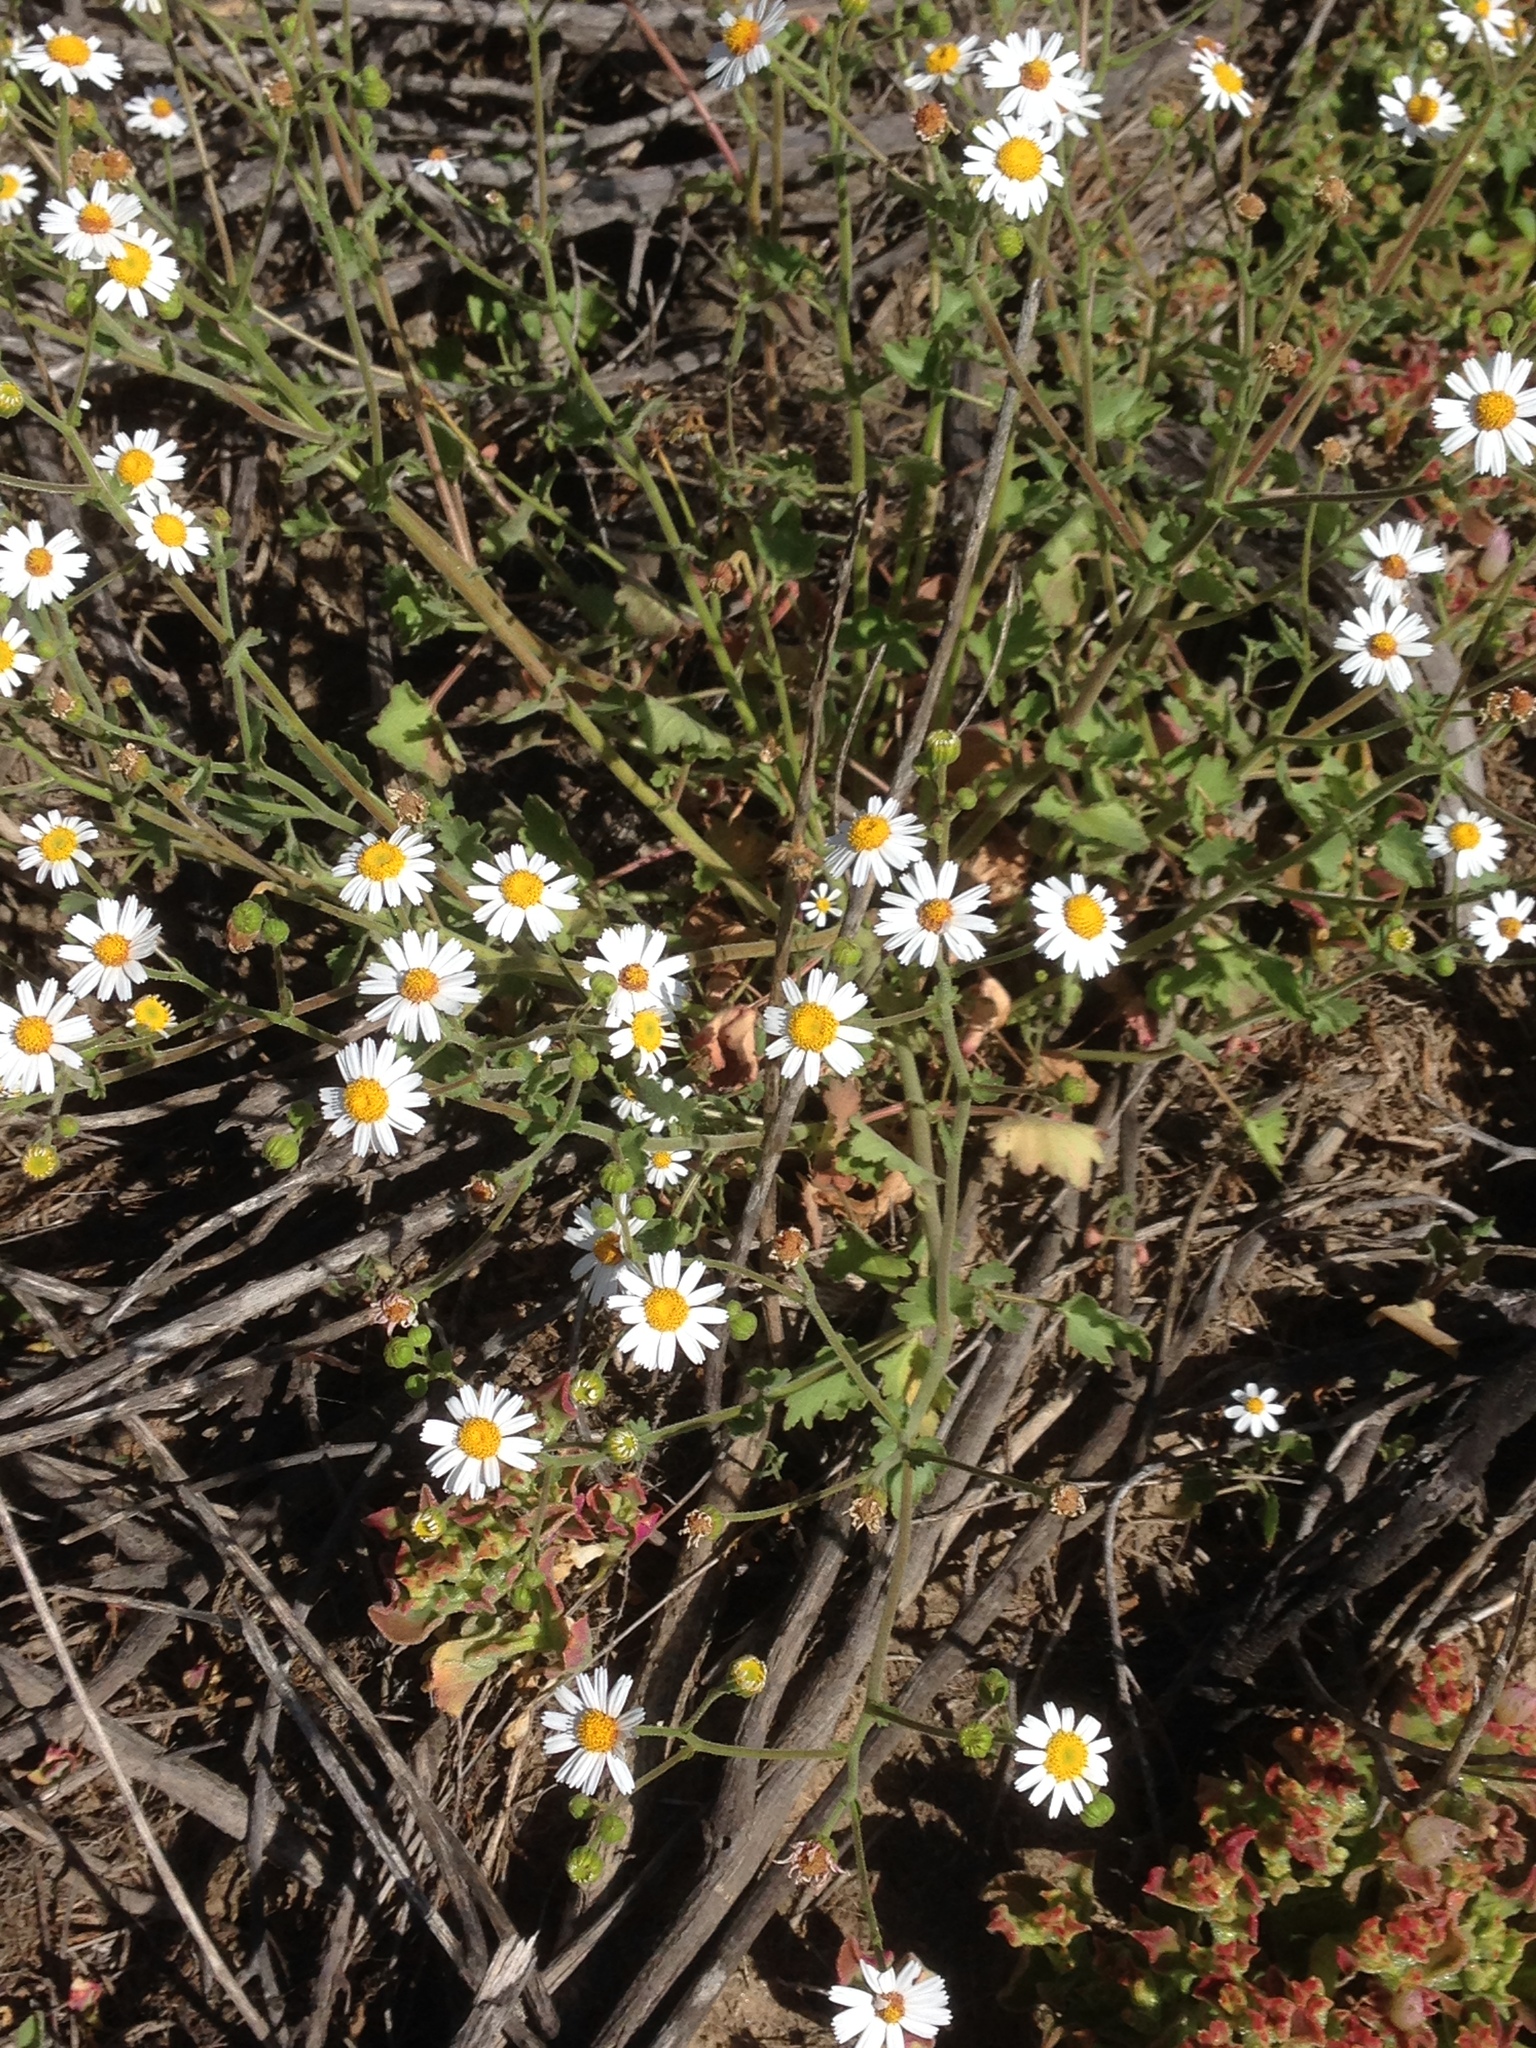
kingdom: Plantae
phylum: Tracheophyta
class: Magnoliopsida
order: Asterales
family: Asteraceae
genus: Perityle
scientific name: Perityle brandegeeana
